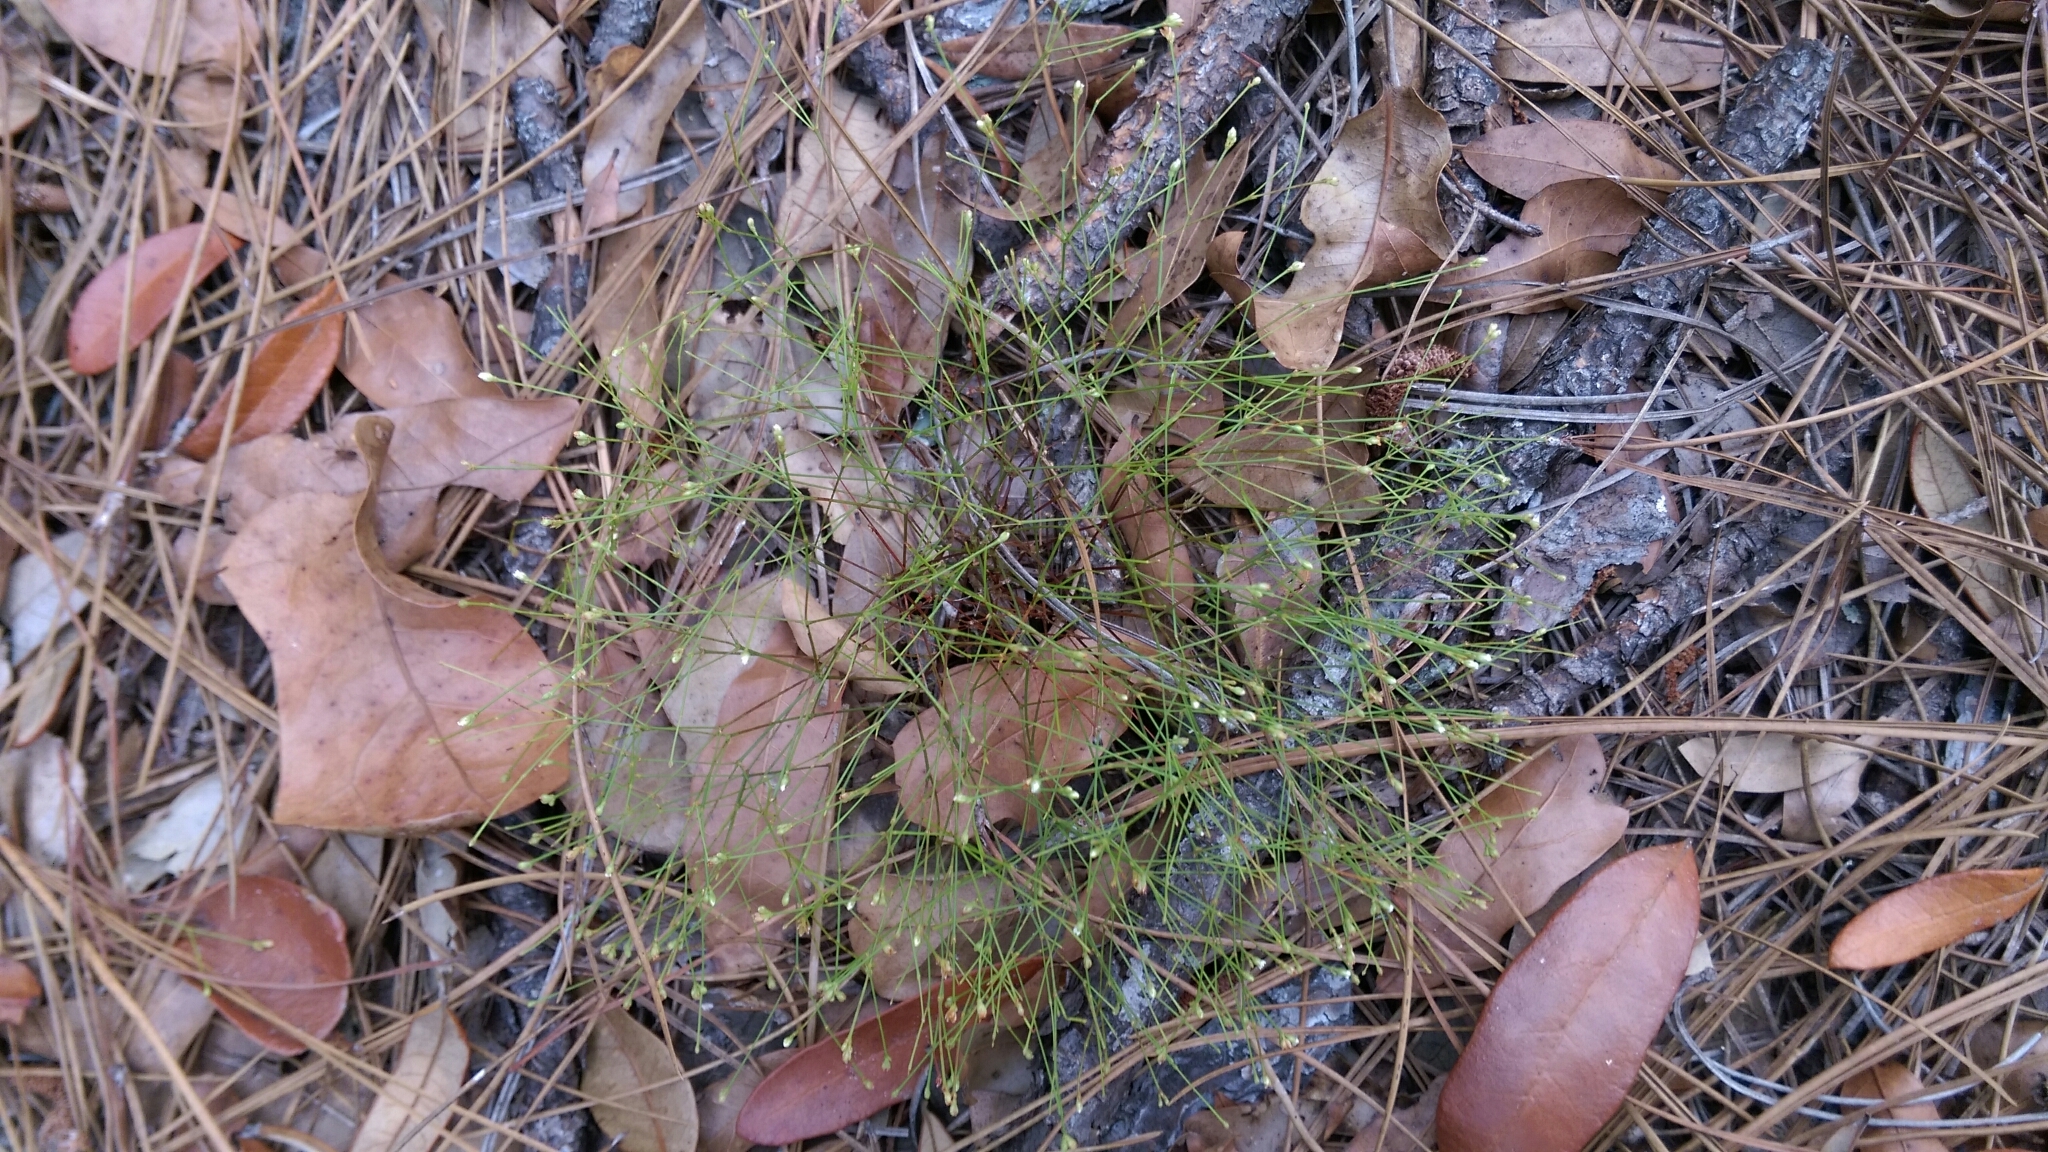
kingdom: Plantae
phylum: Tracheophyta
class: Magnoliopsida
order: Caryophyllales
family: Caryophyllaceae
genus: Stipulicida
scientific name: Stipulicida setacea
